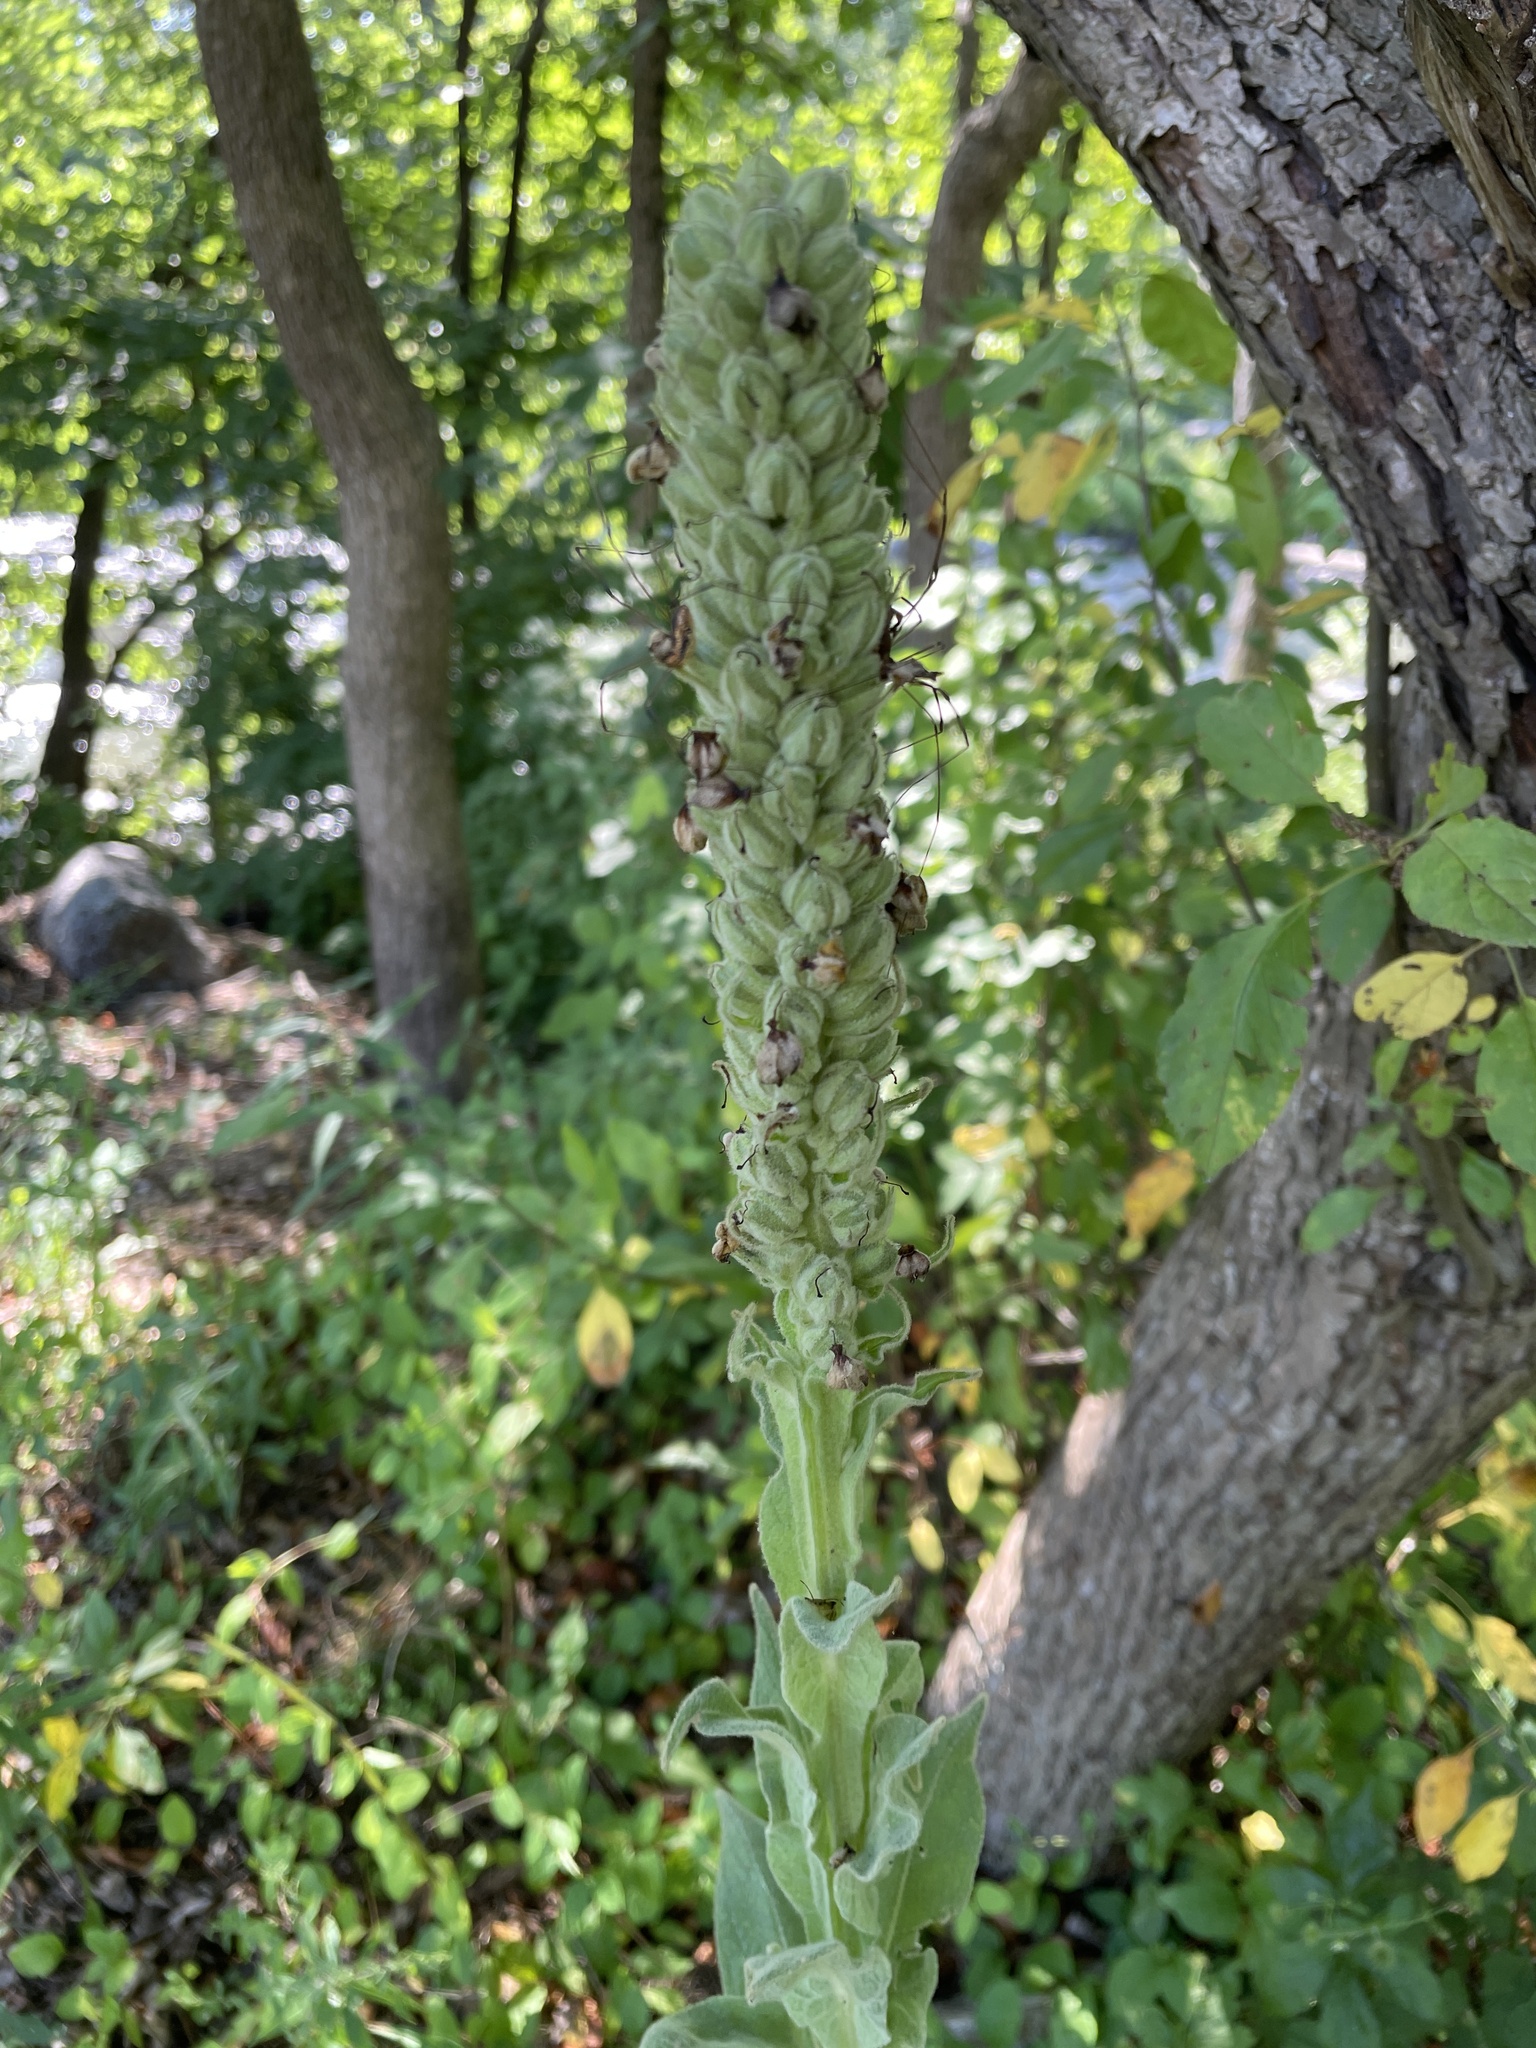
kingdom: Plantae
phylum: Tracheophyta
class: Magnoliopsida
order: Lamiales
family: Scrophulariaceae
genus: Verbascum
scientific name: Verbascum thapsus
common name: Common mullein
